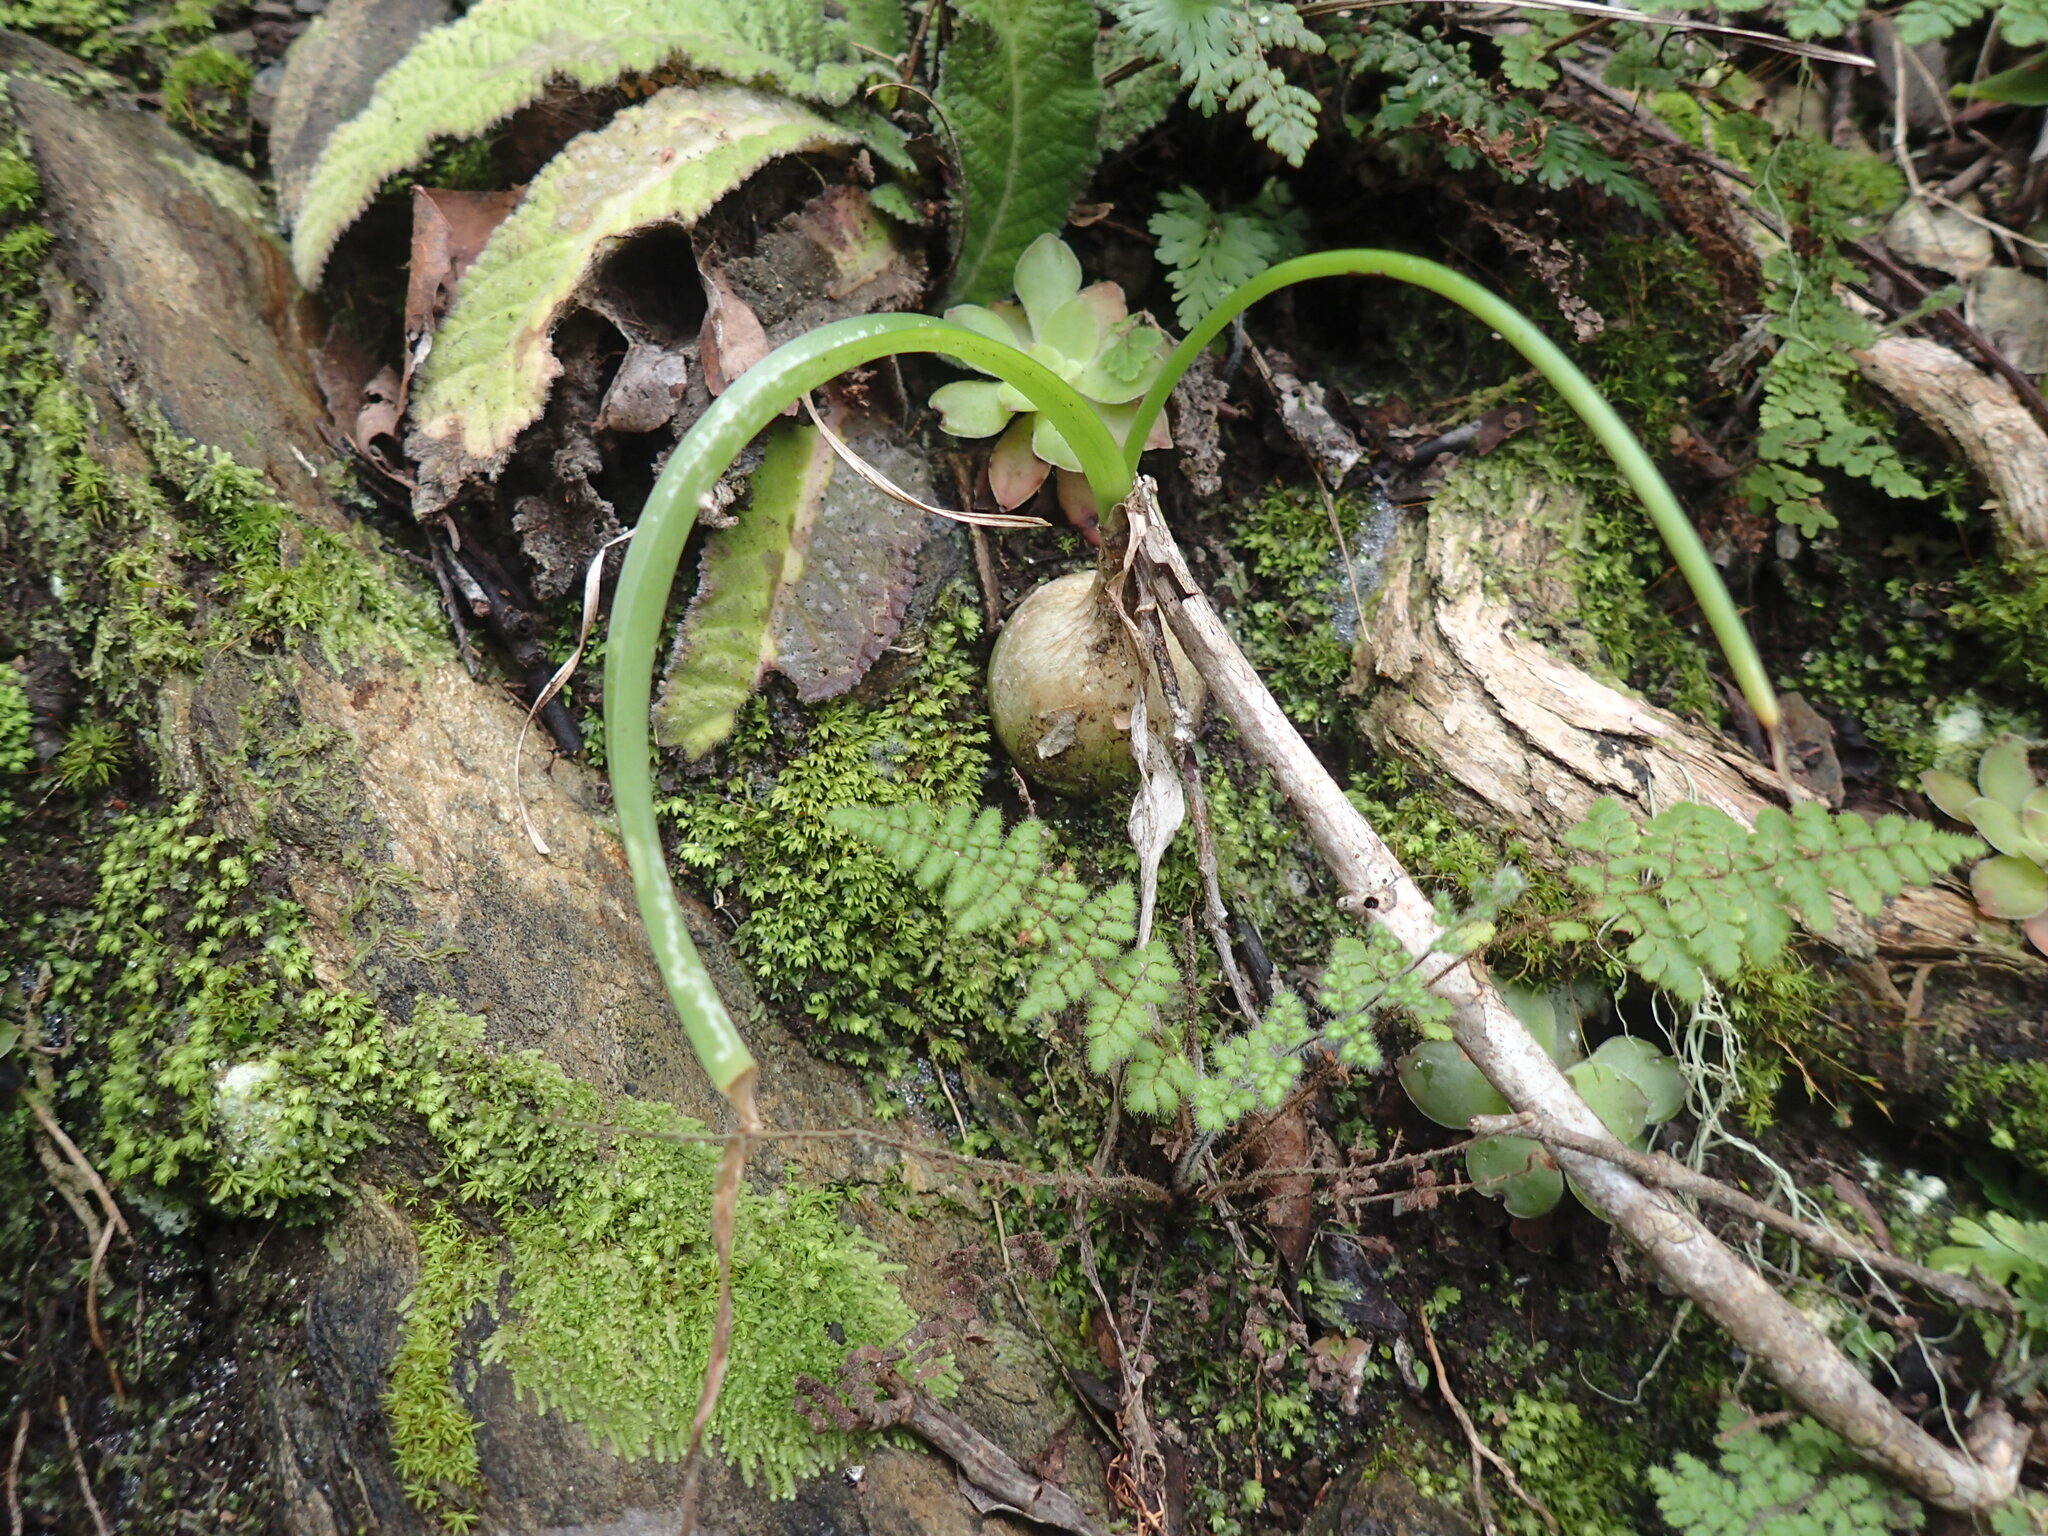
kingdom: Plantae
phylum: Tracheophyta
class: Liliopsida
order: Asparagales
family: Asparagaceae
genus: Albuca
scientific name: Albuca bracteata
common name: Sea-onion
